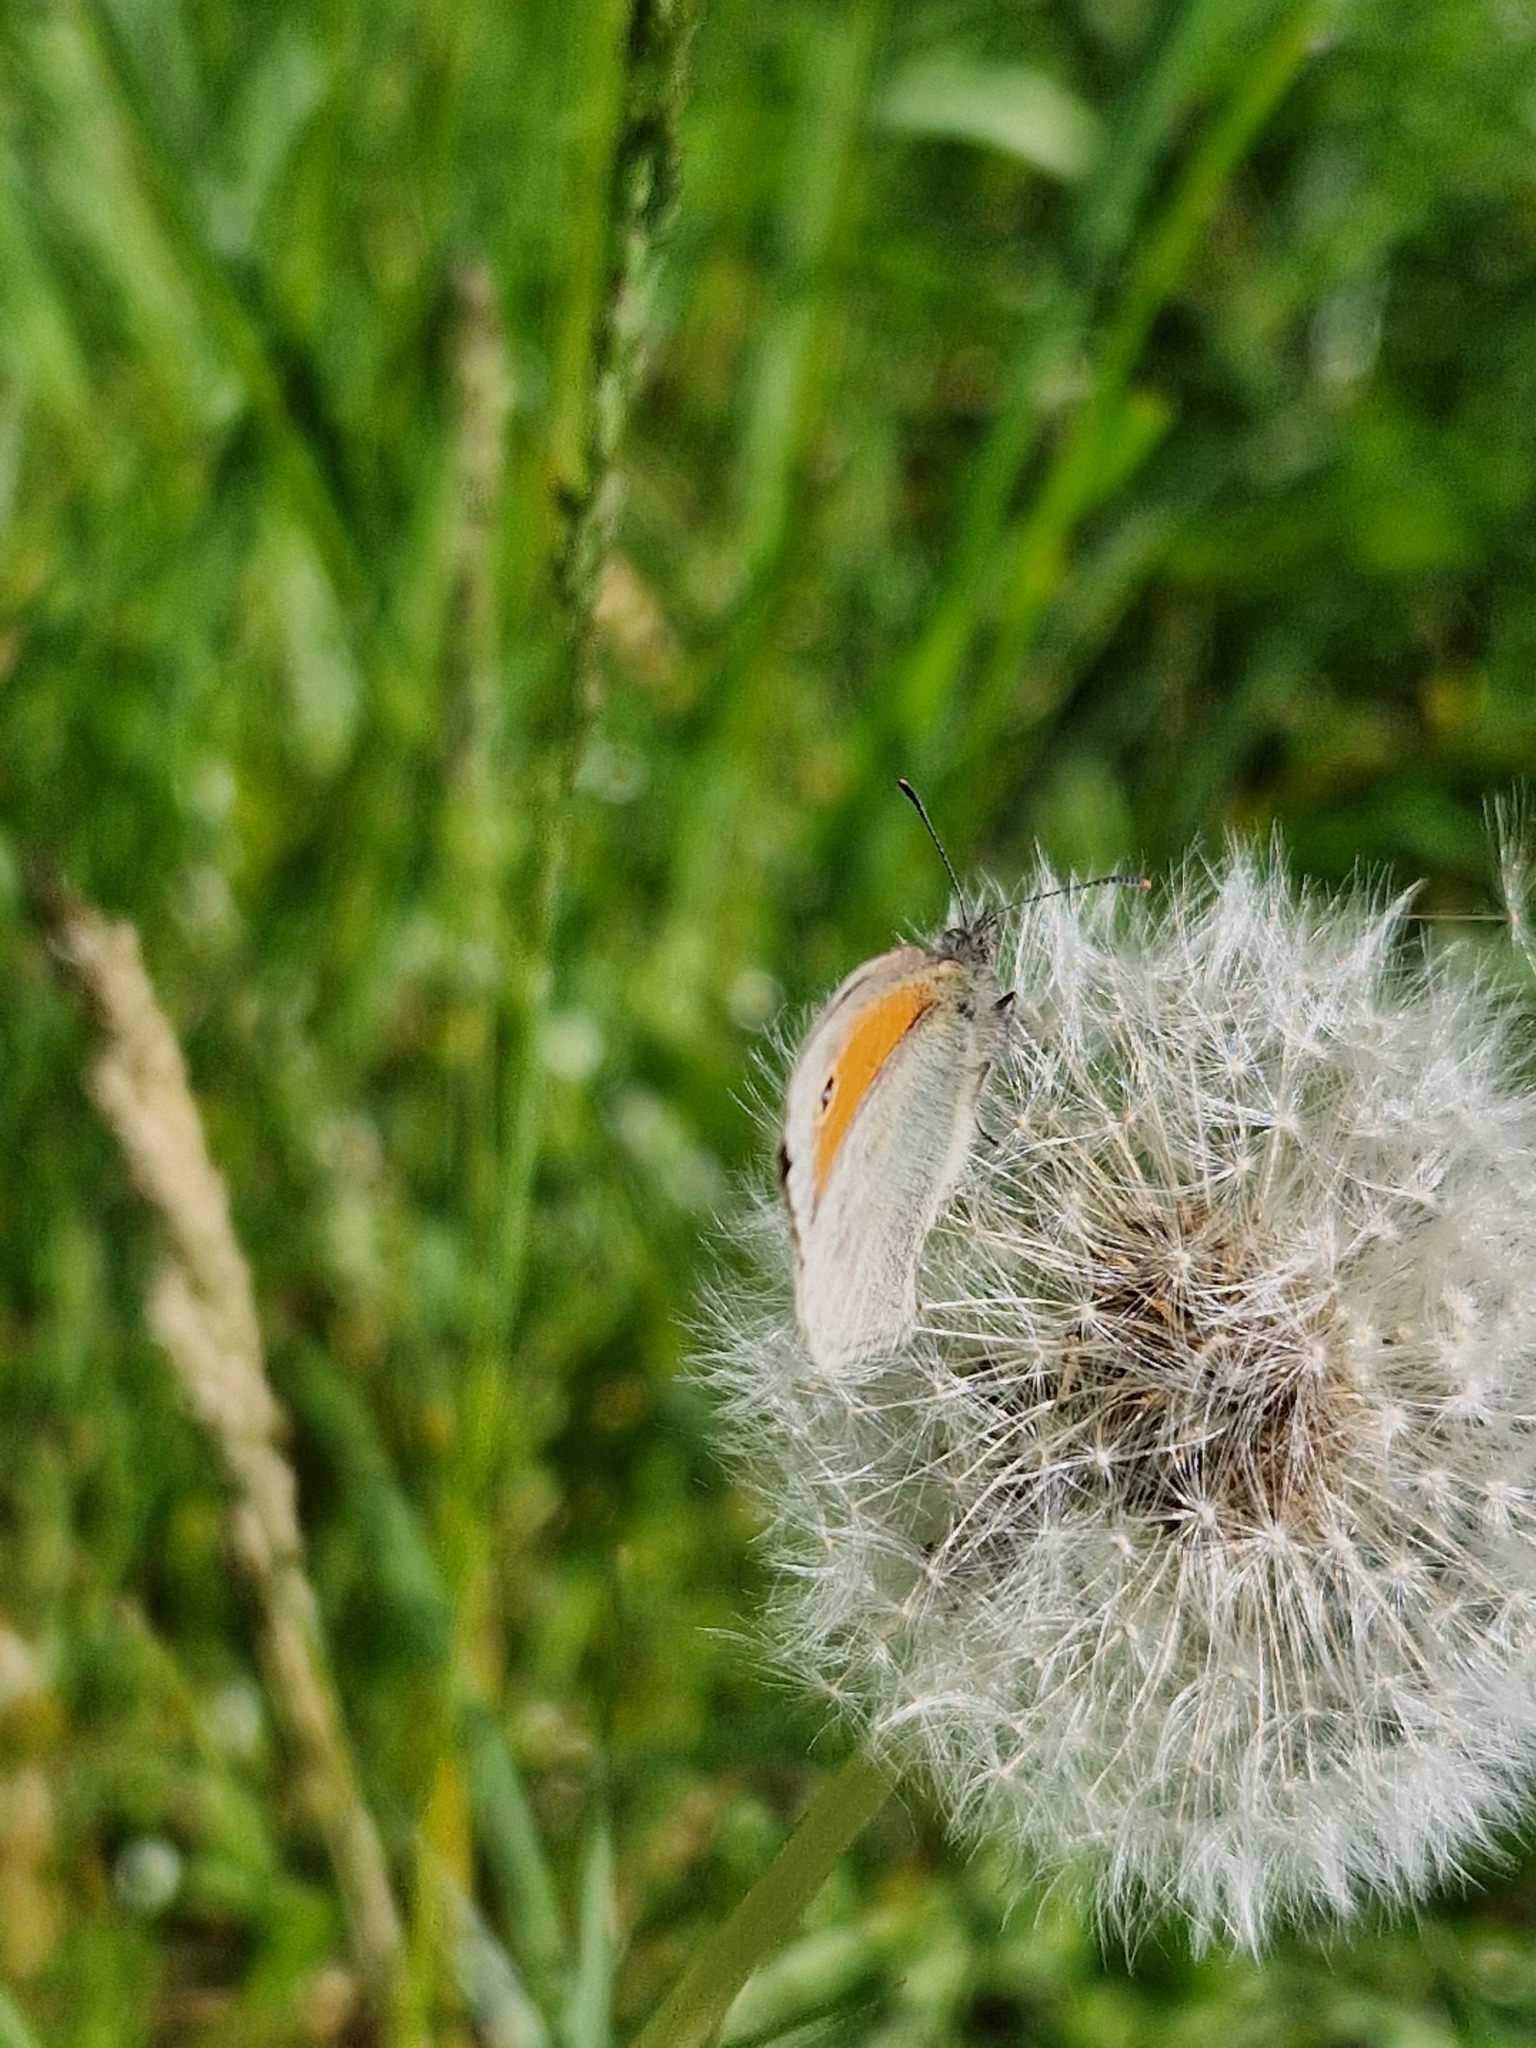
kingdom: Animalia
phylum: Arthropoda
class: Insecta
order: Lepidoptera
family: Nymphalidae
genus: Coenonympha
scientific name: Coenonympha pamphilus
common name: Small heath
